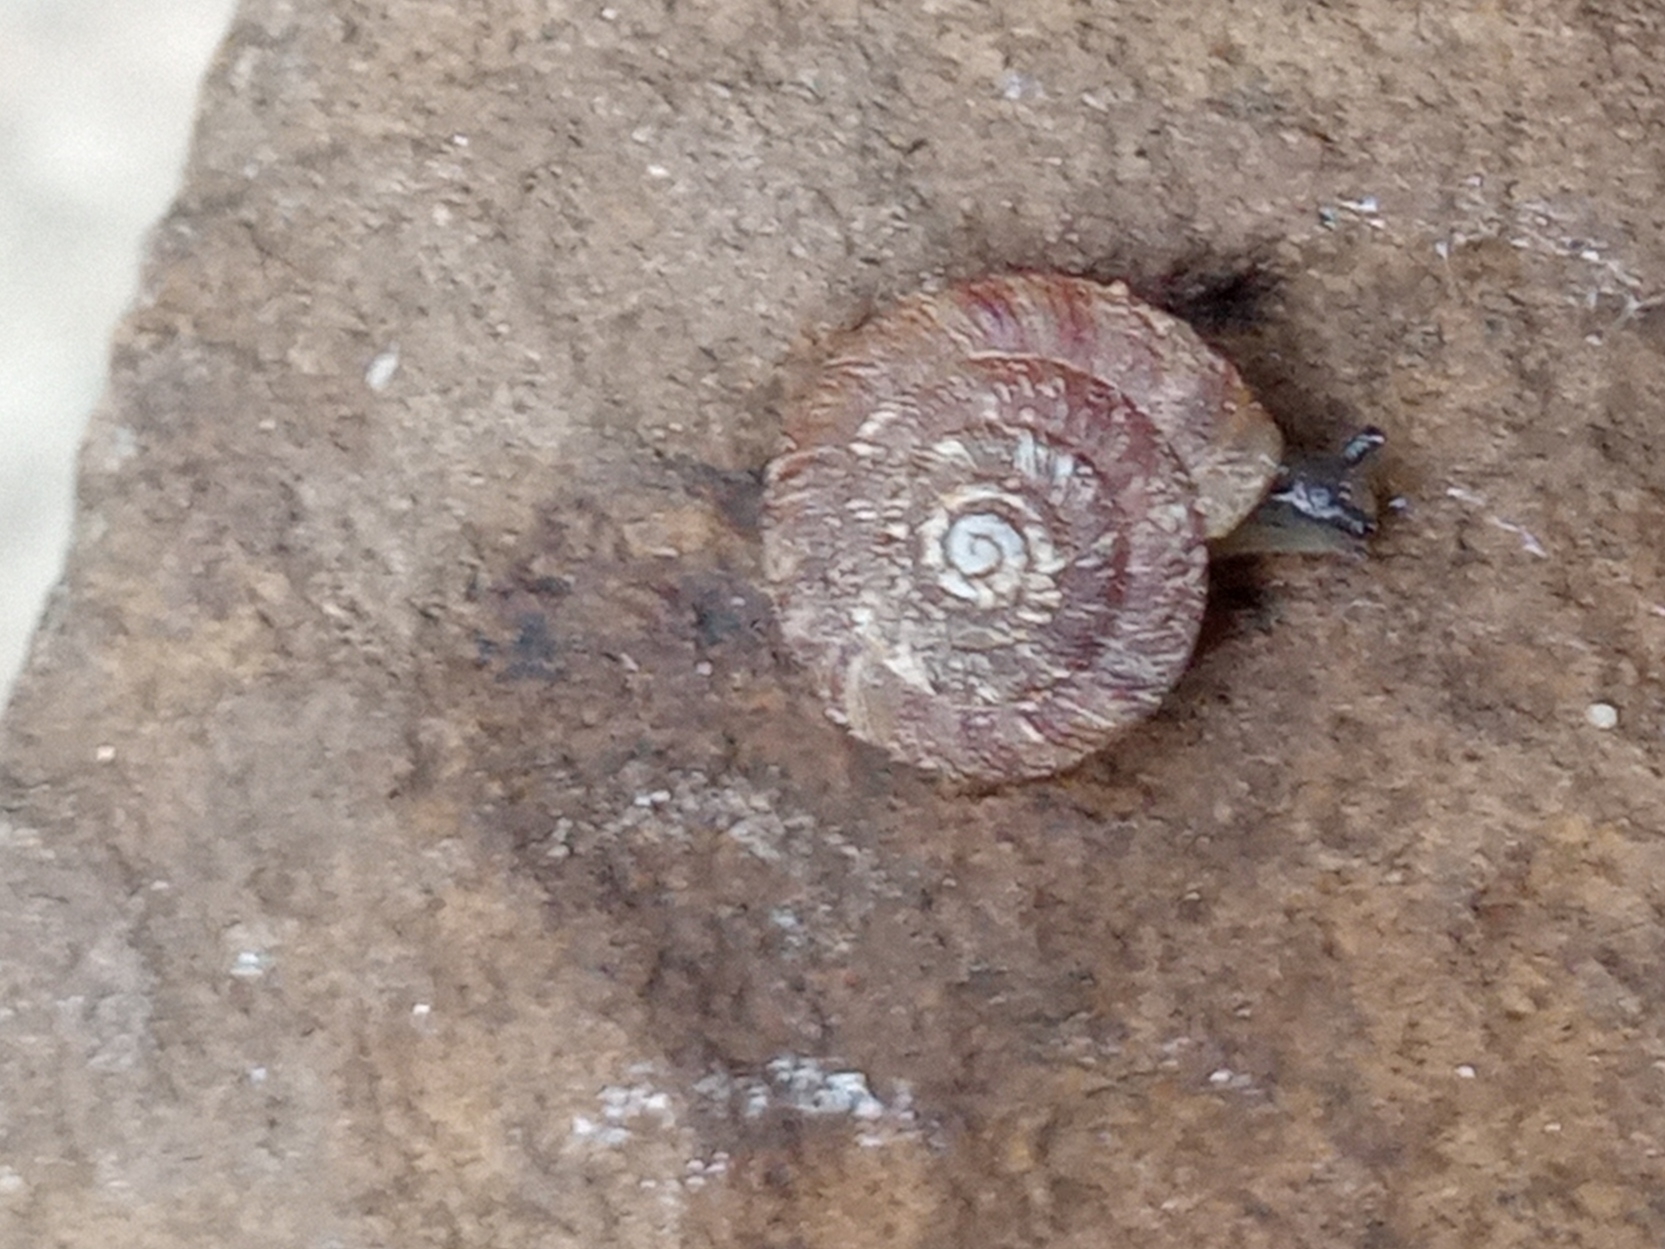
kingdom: Animalia
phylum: Mollusca
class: Gastropoda
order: Stylommatophora
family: Discidae
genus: Discus
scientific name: Discus rotundatus
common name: Rounded snail
